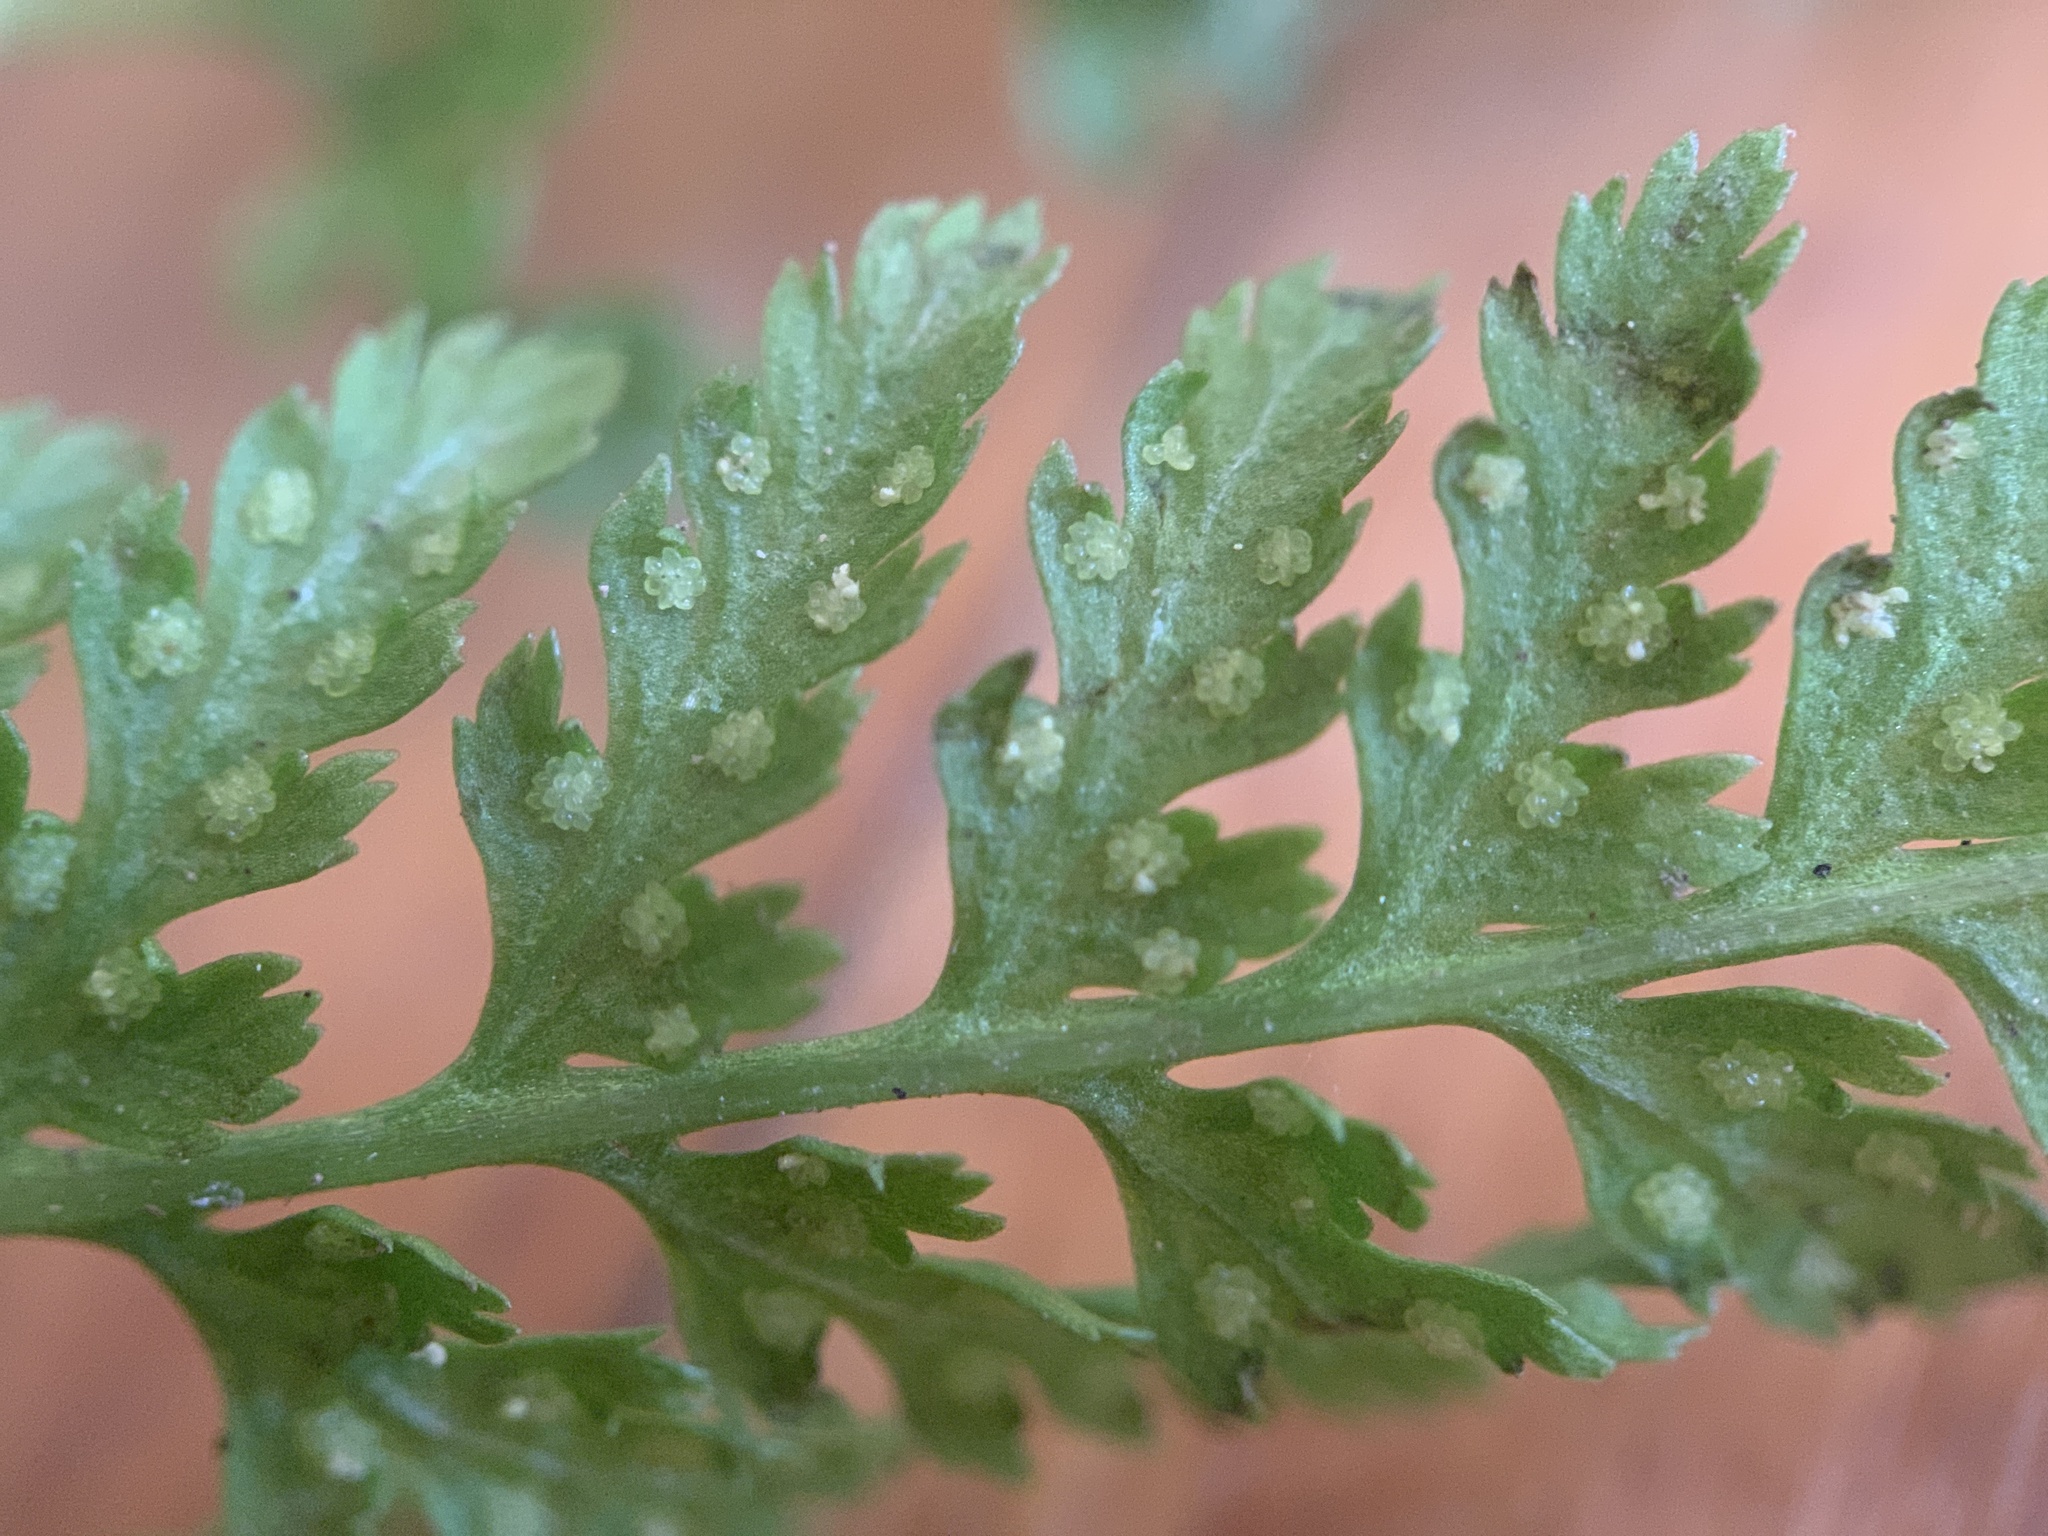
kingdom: Plantae
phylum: Tracheophyta
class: Polypodiopsida
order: Polypodiales
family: Athyriaceae
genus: Athyrium
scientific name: Athyrium americanum
